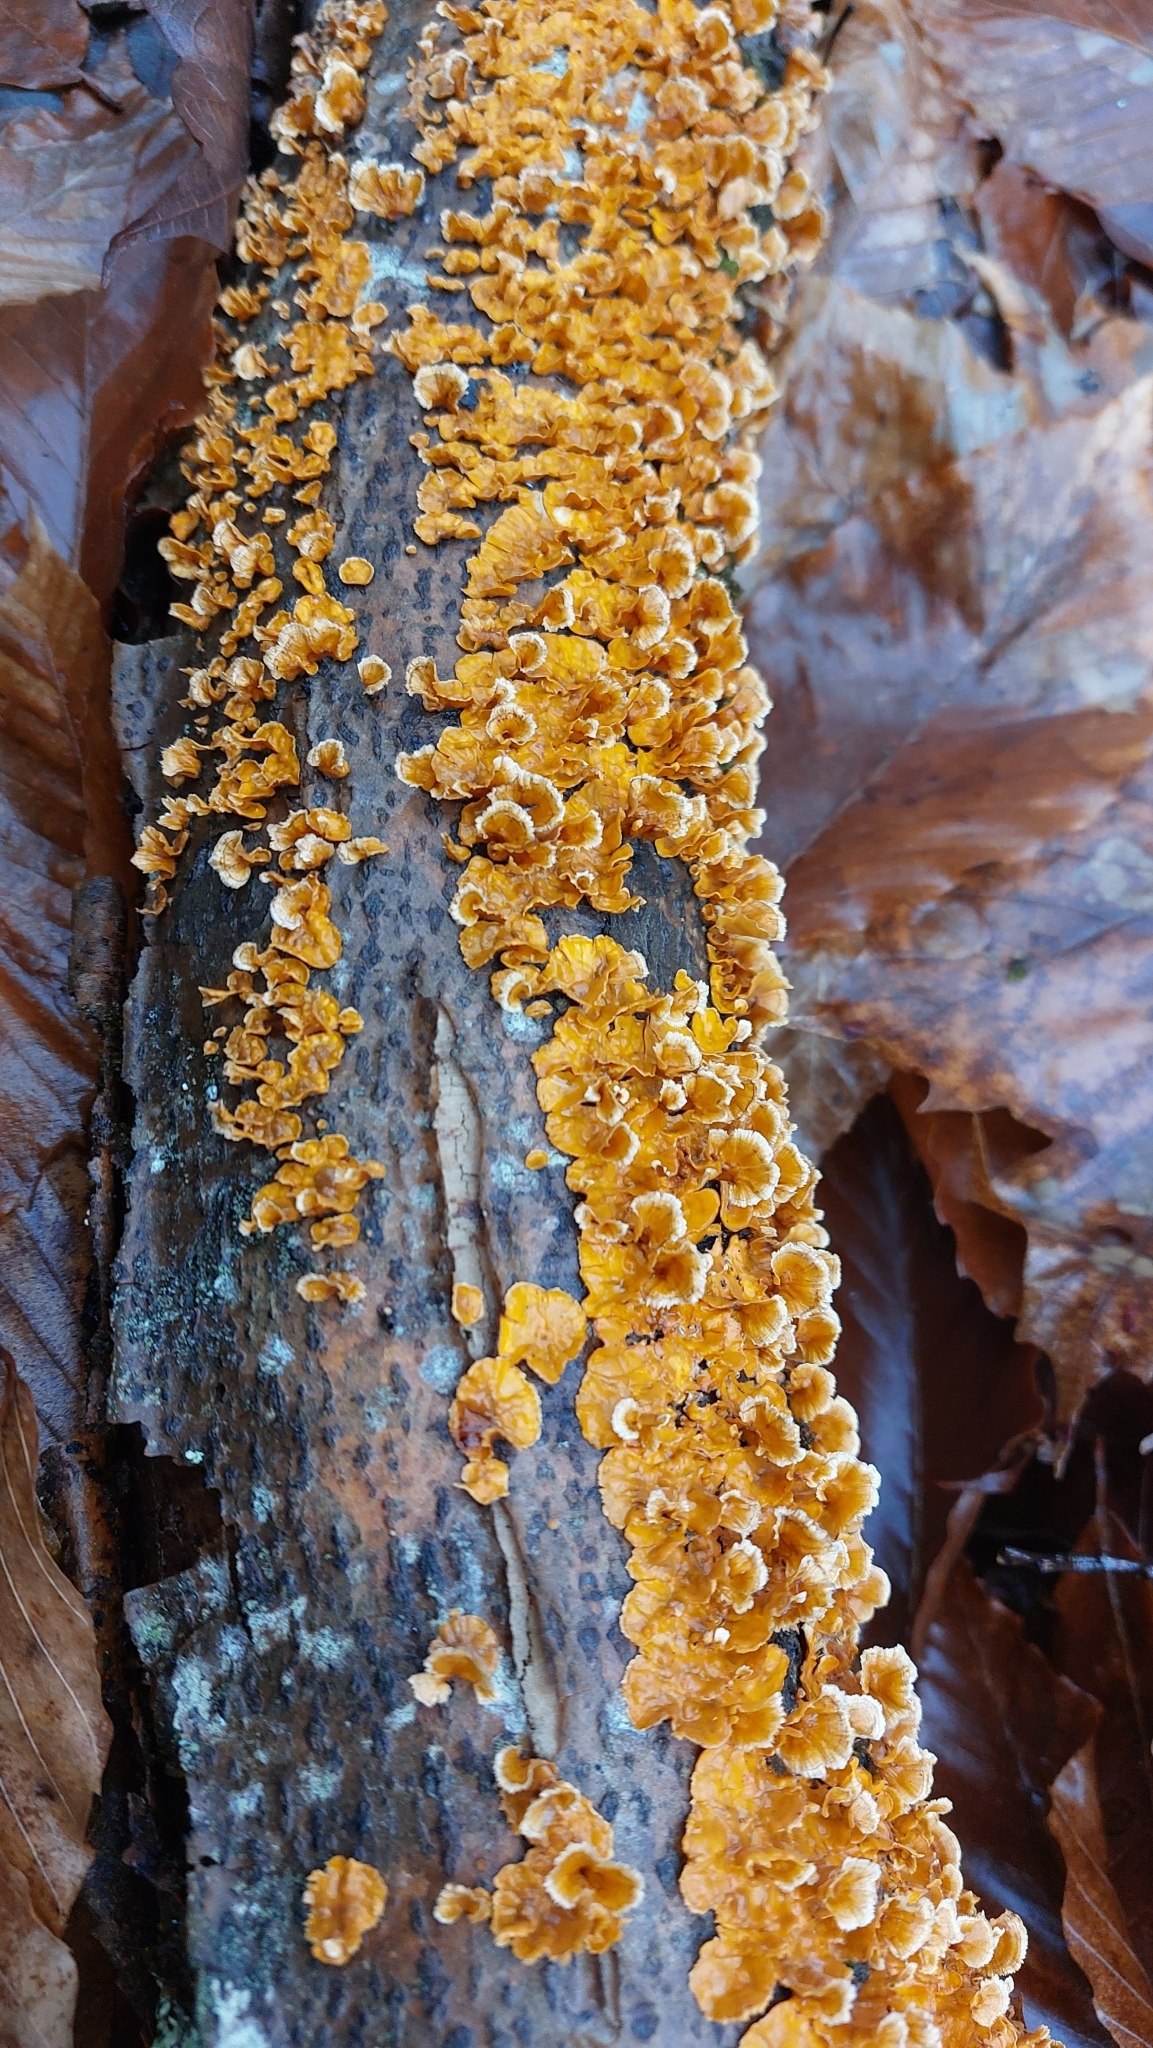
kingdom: Fungi
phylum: Basidiomycota
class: Agaricomycetes
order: Russulales
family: Stereaceae
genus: Stereum
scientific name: Stereum complicatum
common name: Crowded parchment
